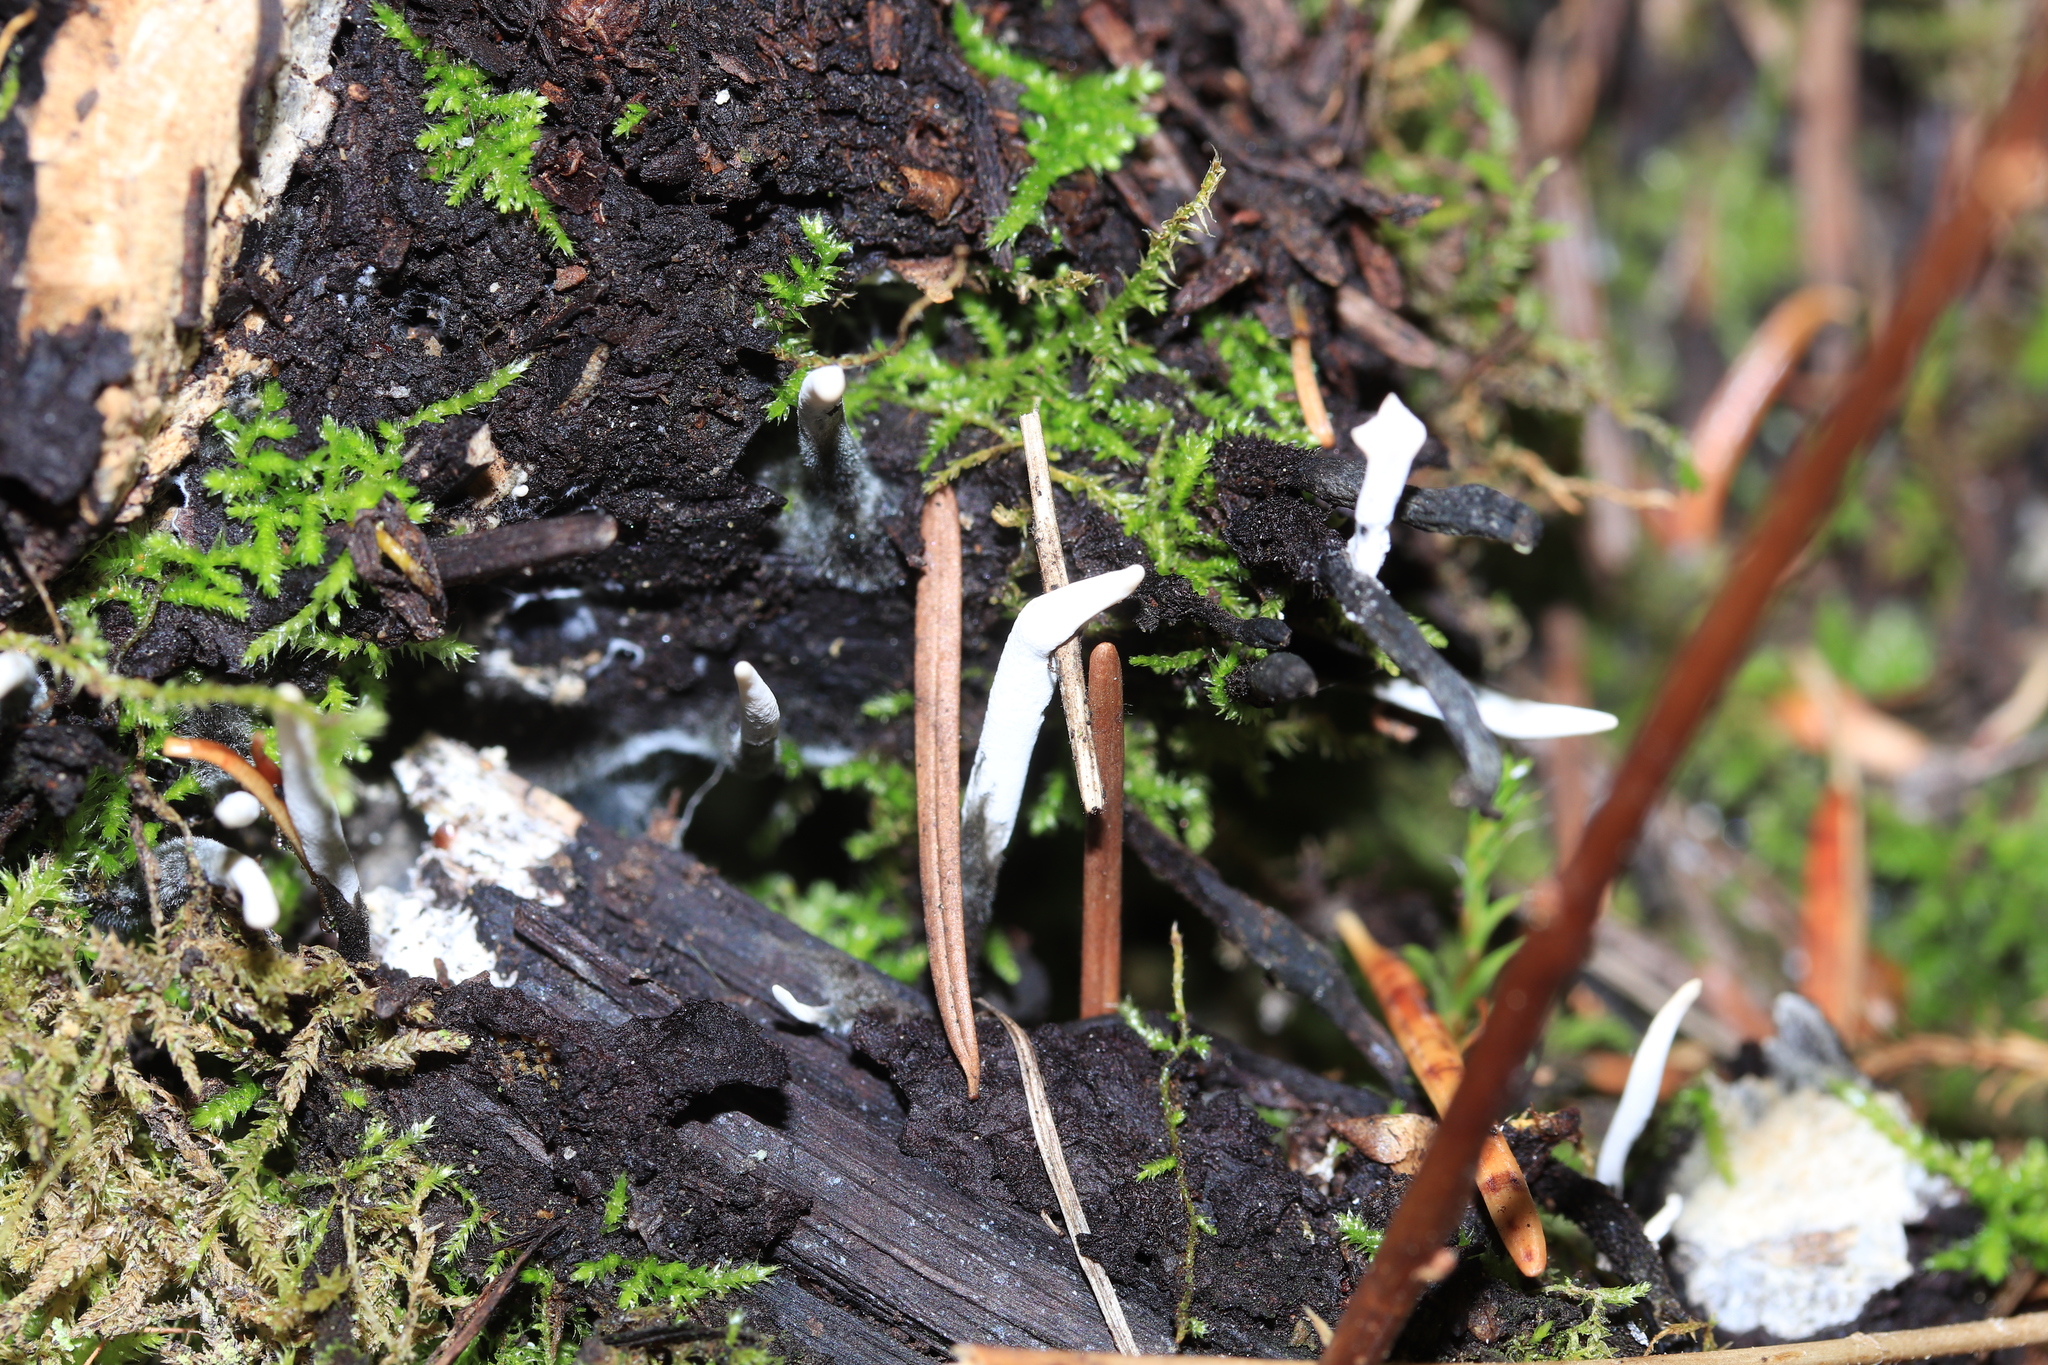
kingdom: Fungi
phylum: Ascomycota
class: Sordariomycetes
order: Xylariales
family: Xylariaceae
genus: Xylaria
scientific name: Xylaria hypoxylon
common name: Candle-snuff fungus
